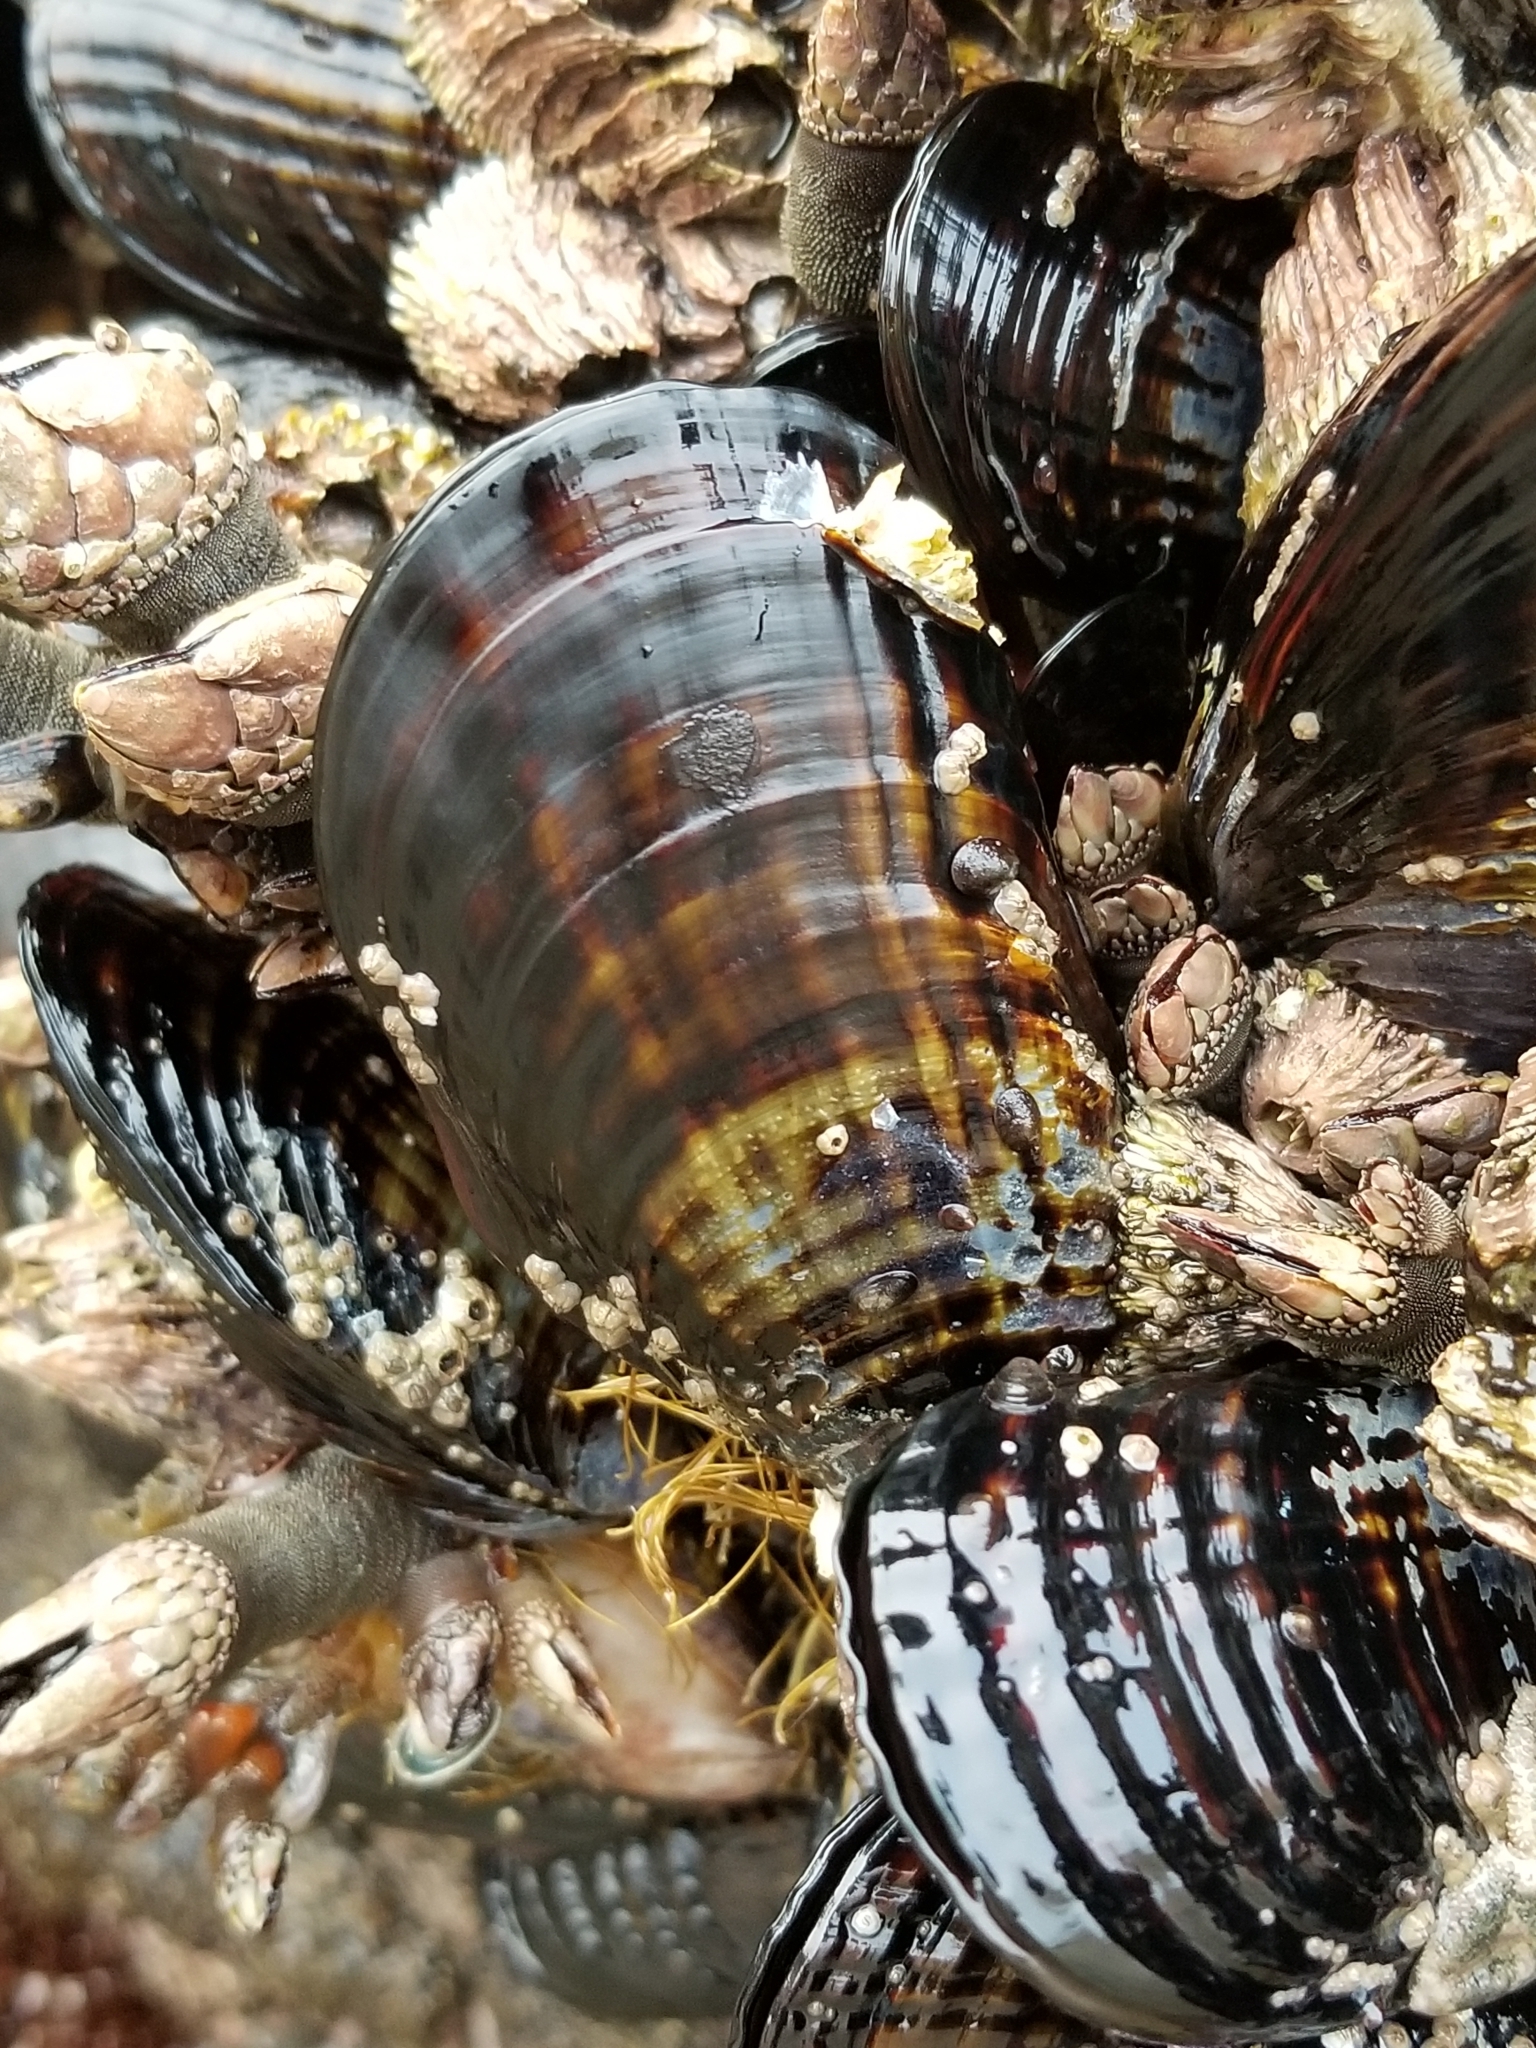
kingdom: Animalia
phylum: Mollusca
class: Bivalvia
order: Mytilida
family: Mytilidae
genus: Mytilus
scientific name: Mytilus californianus
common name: California mussel
